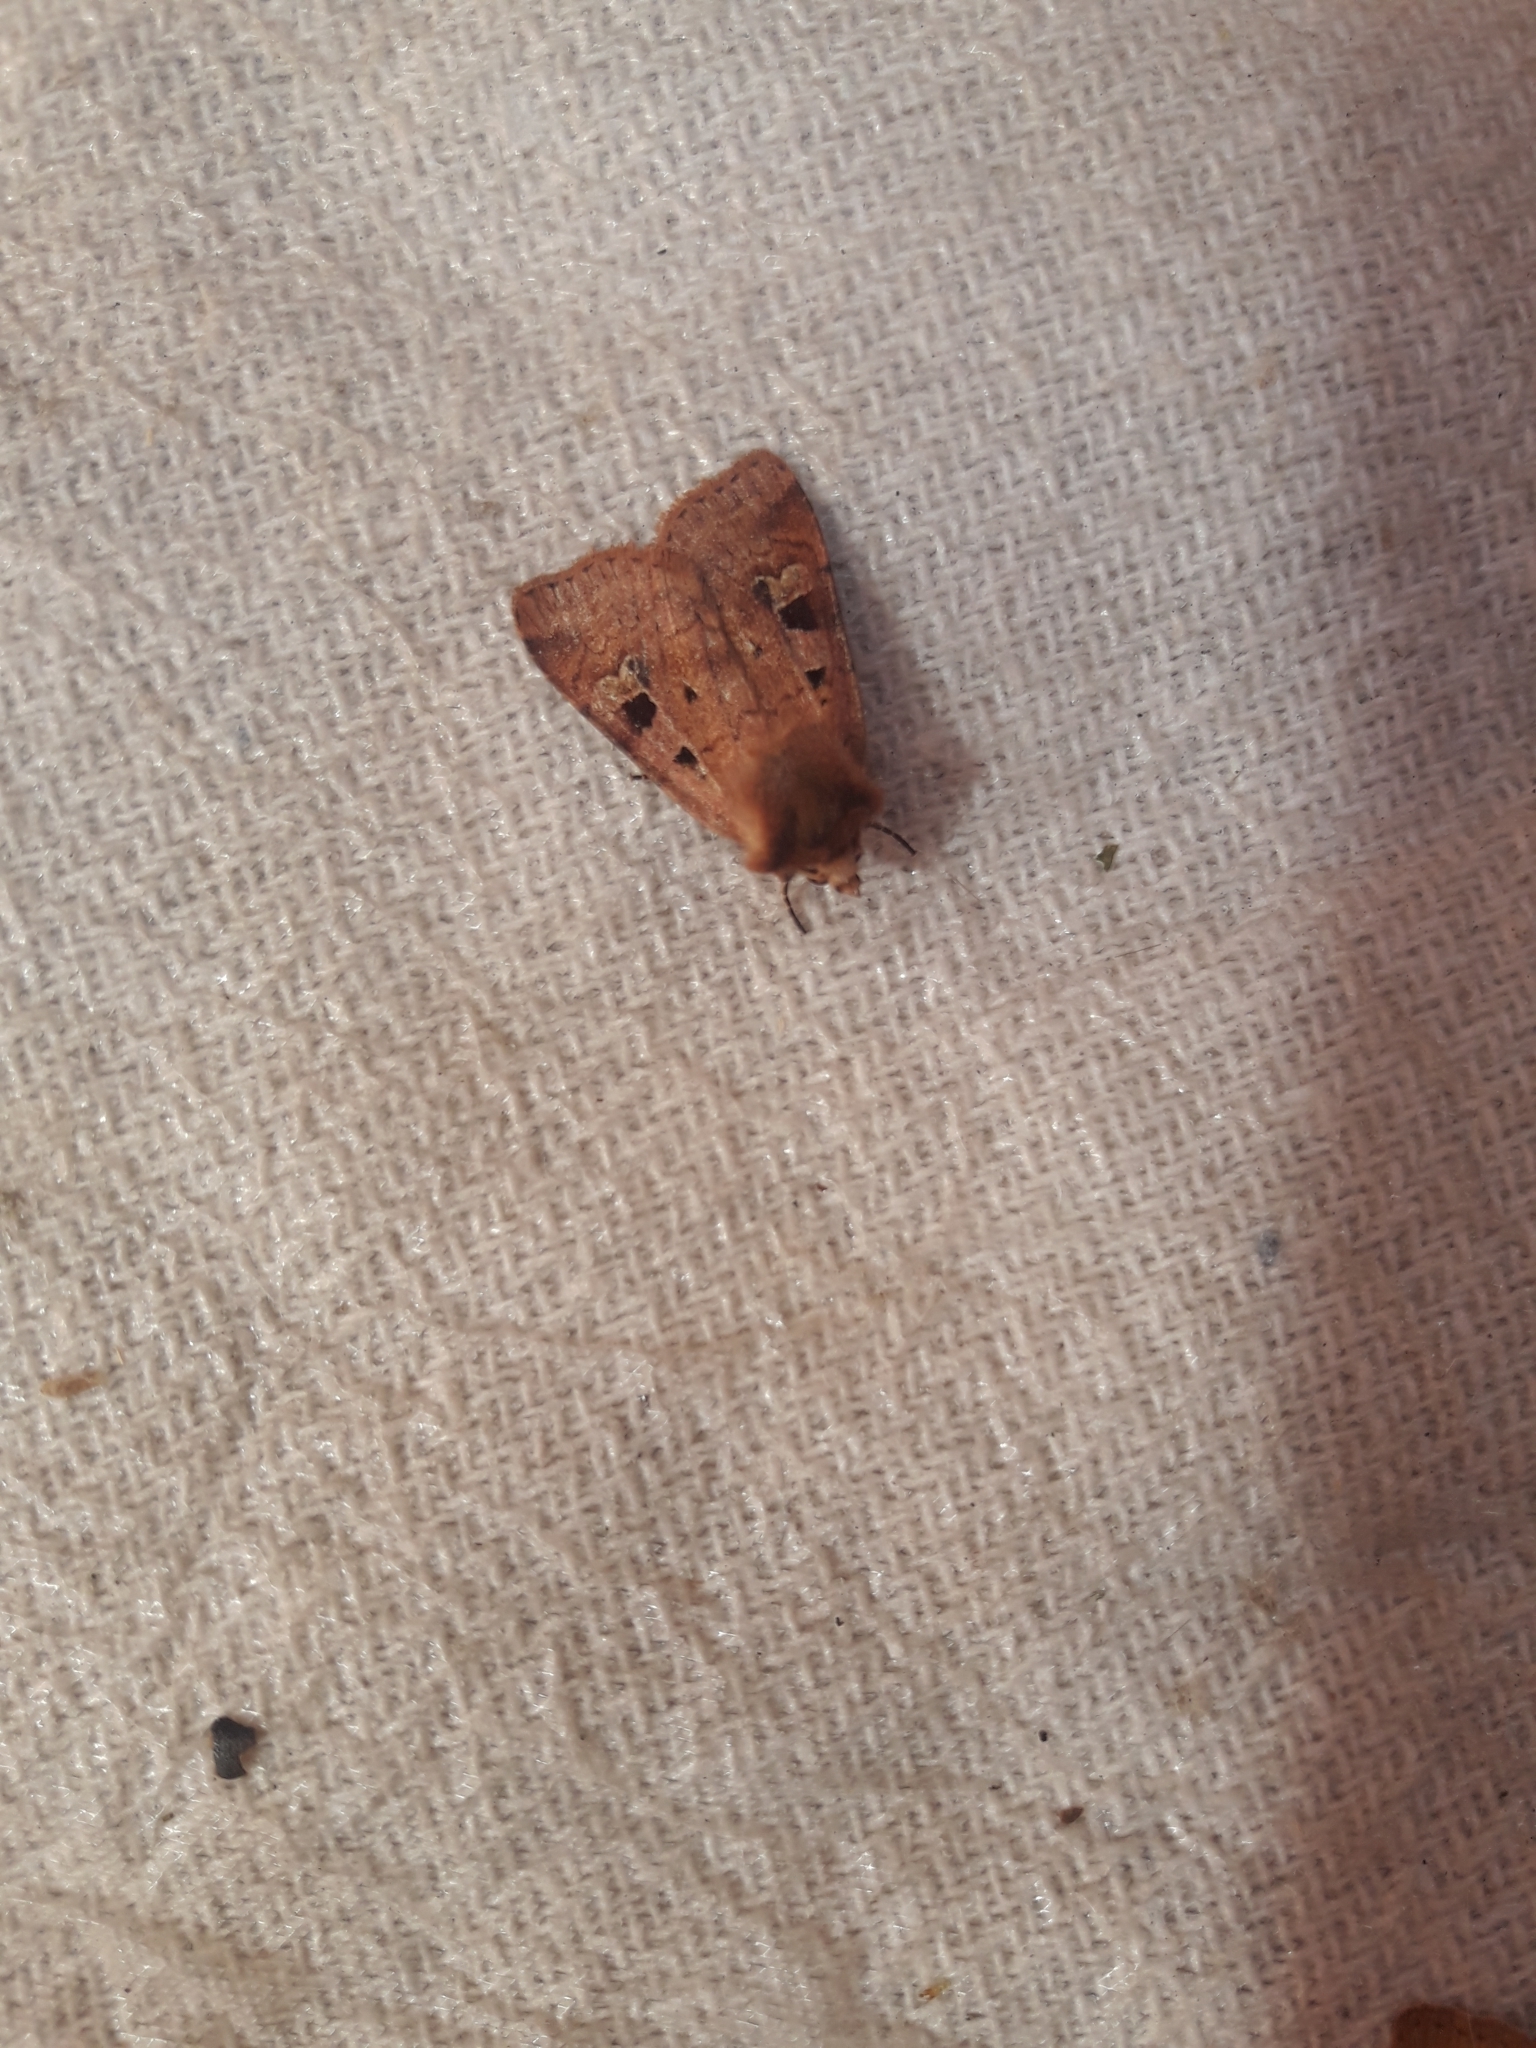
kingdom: Animalia
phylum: Arthropoda
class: Insecta
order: Lepidoptera
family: Noctuidae
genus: Diarsia
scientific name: Diarsia mendica
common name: Ingrailed clay
